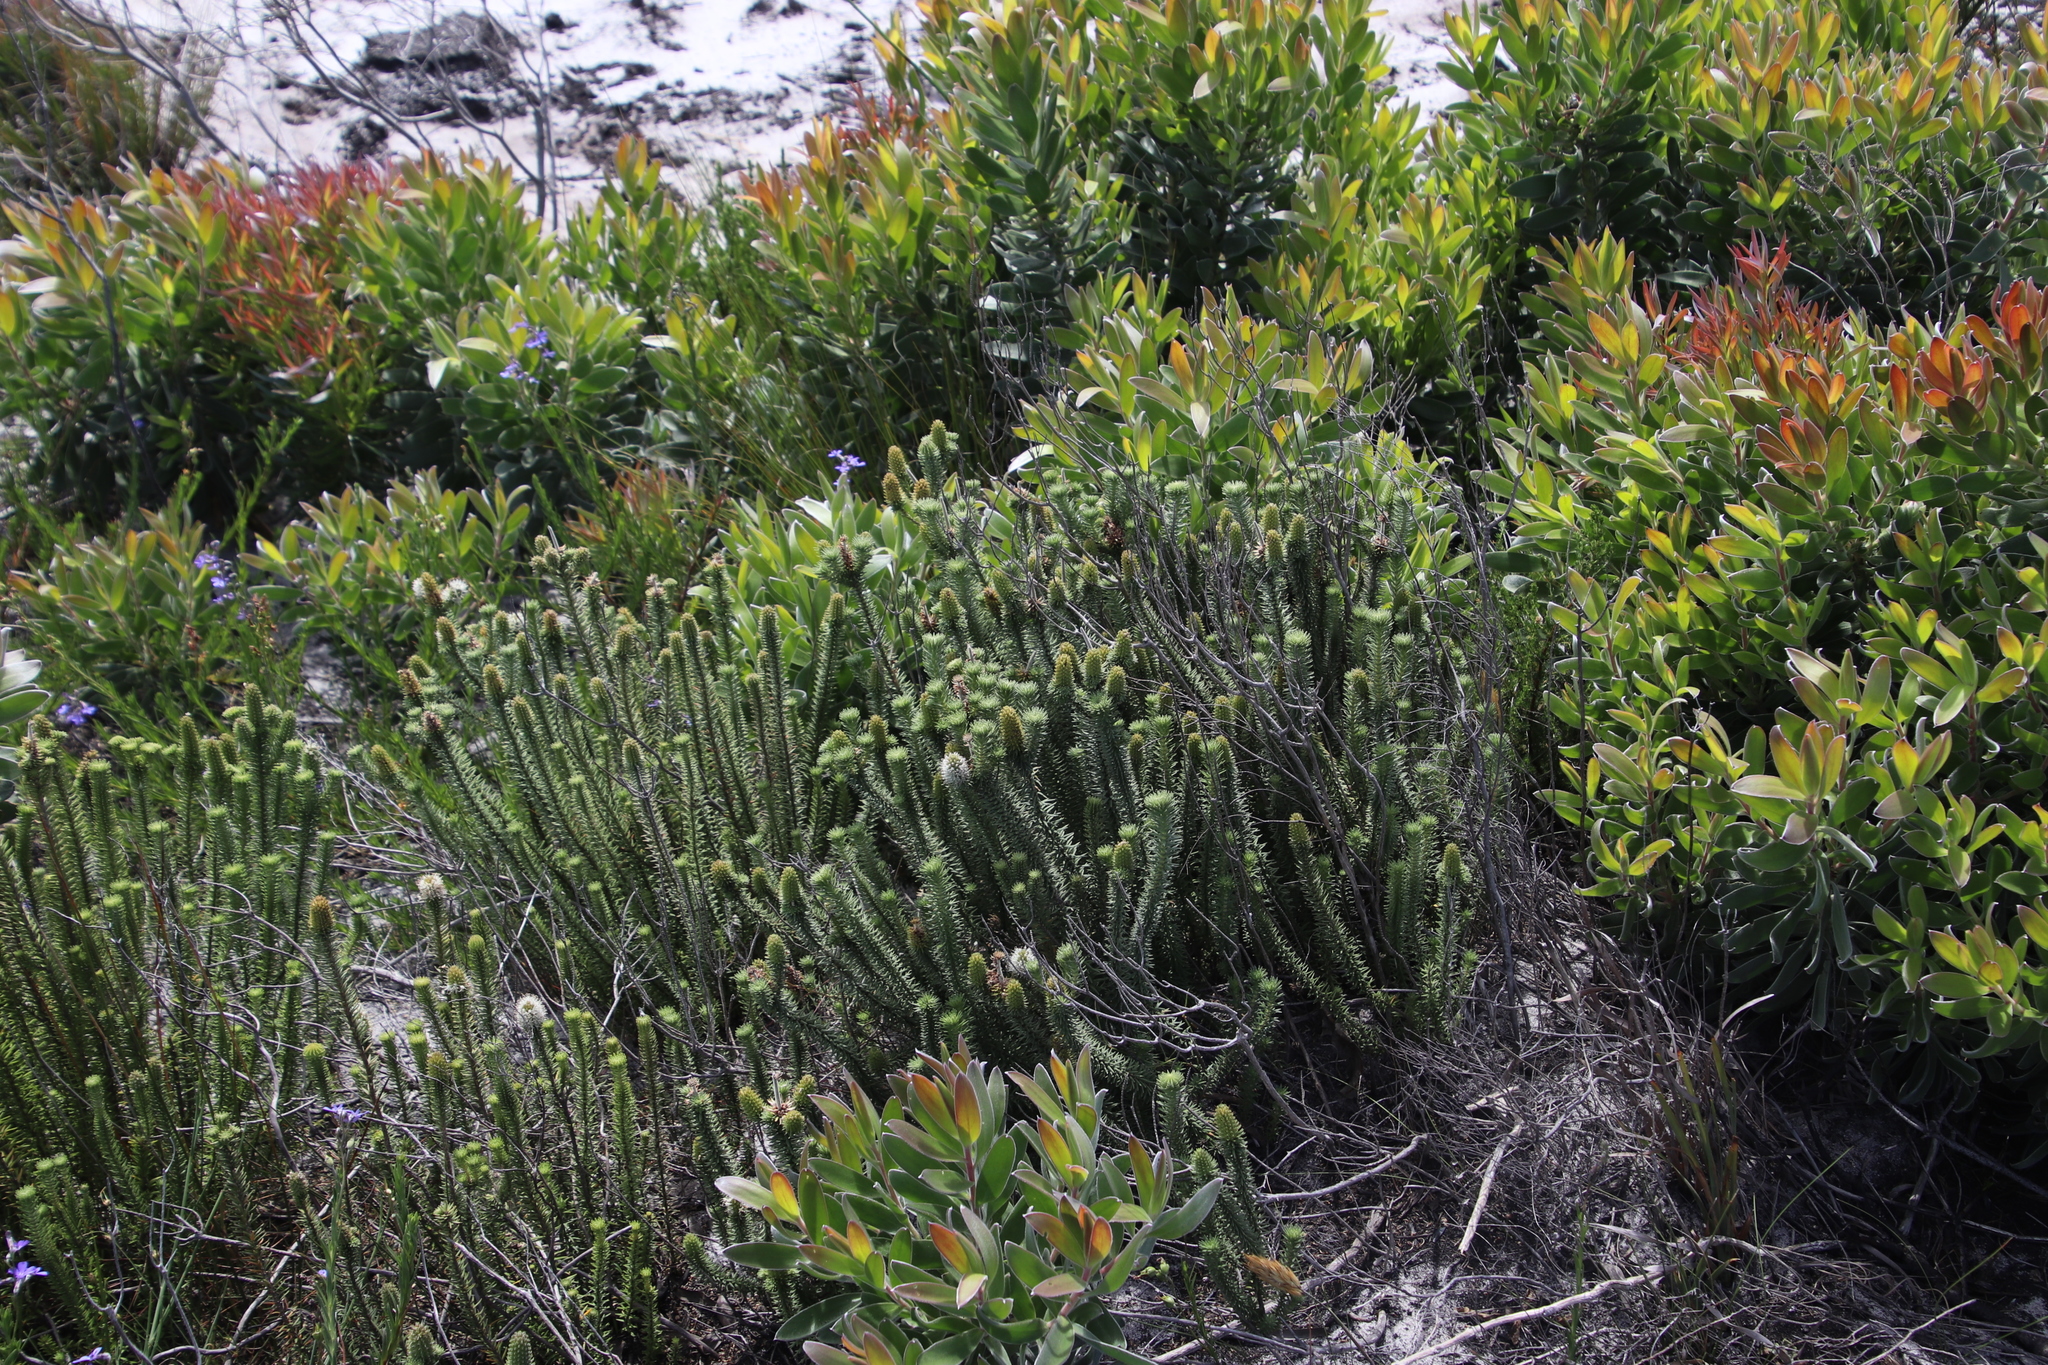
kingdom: Plantae
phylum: Tracheophyta
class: Magnoliopsida
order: Lamiales
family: Stilbaceae
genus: Stilbe
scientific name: Stilbe vestita
